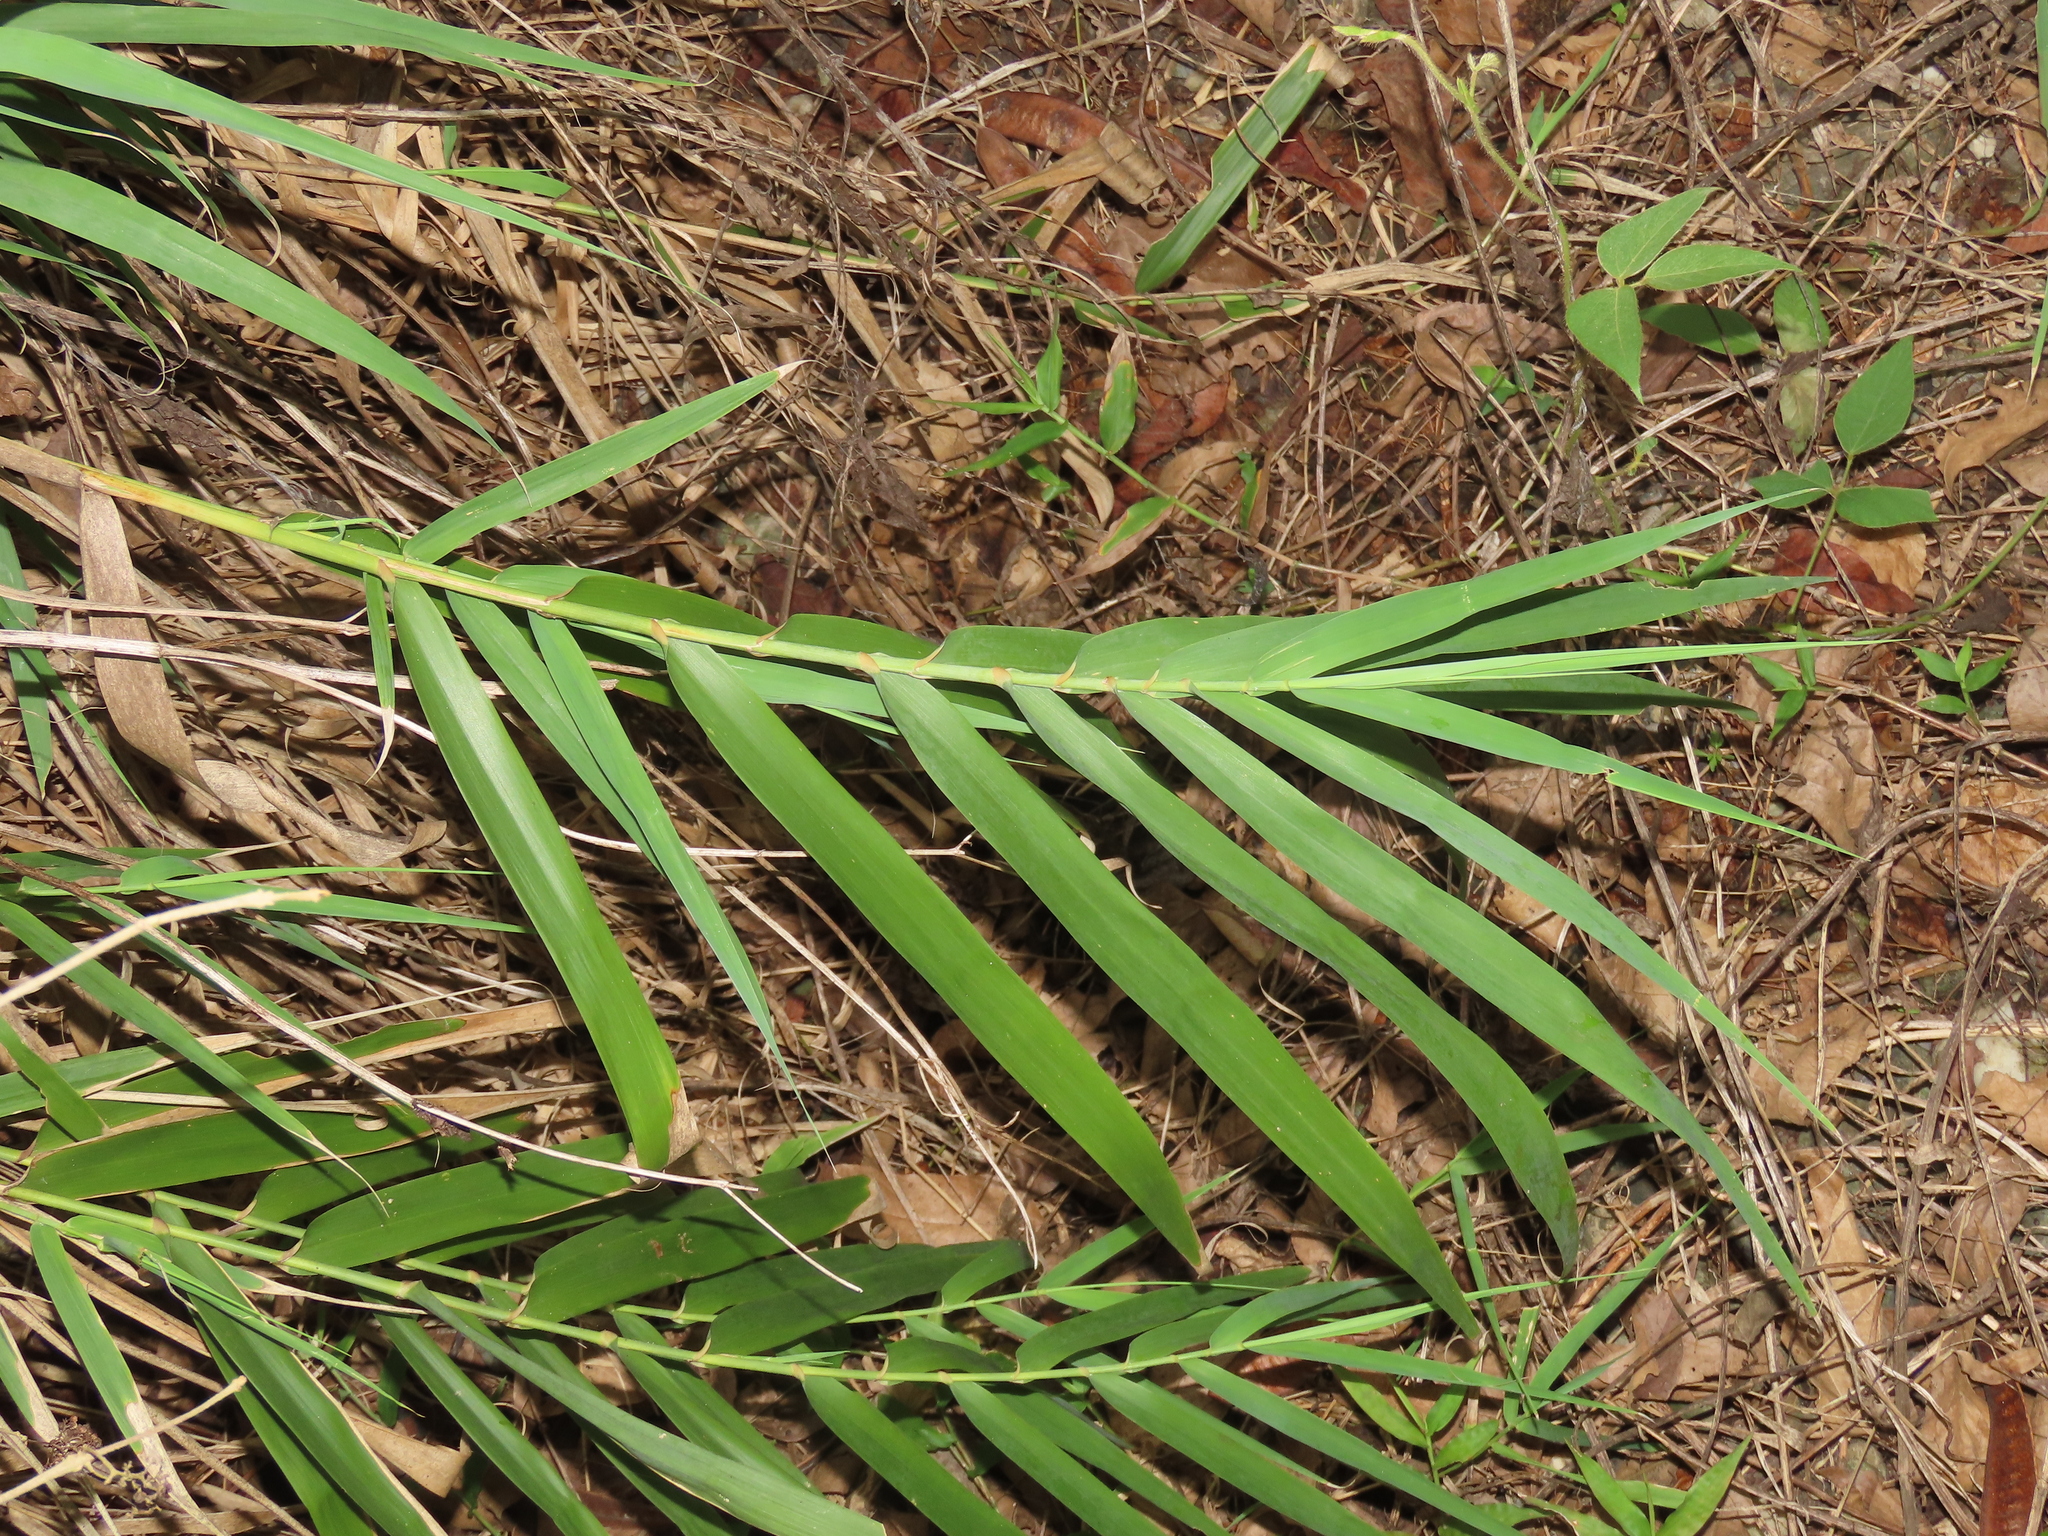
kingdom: Plantae
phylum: Tracheophyta
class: Liliopsida
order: Poales
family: Poaceae
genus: Arundo
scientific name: Arundo formosana
